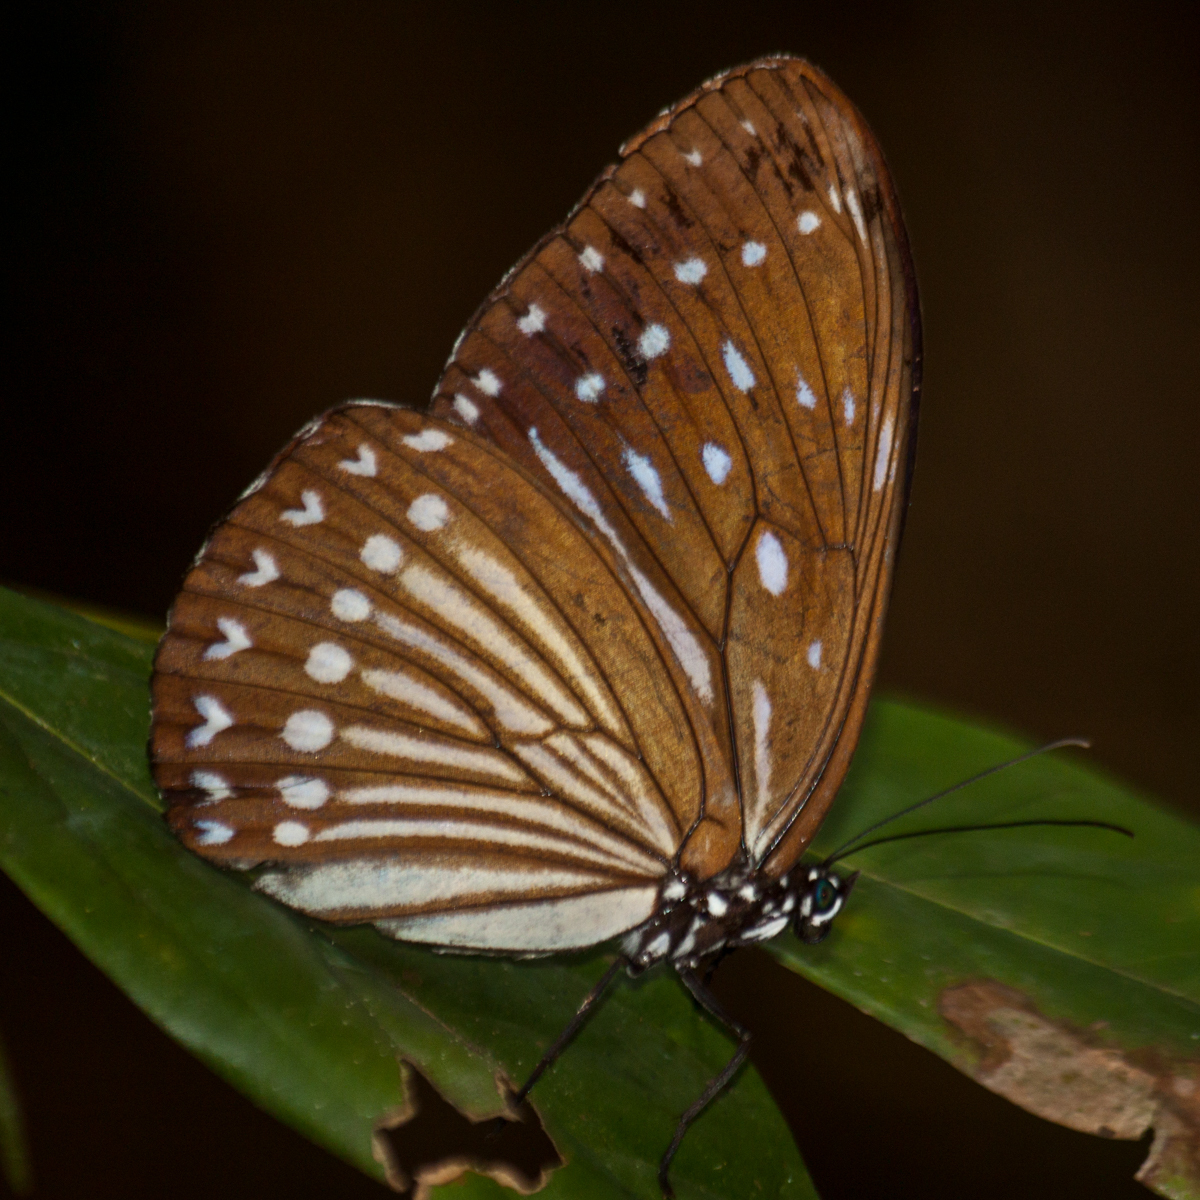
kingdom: Animalia
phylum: Arthropoda
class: Insecta
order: Lepidoptera
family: Nymphalidae
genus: Penthema
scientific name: Penthema darlisa
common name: Three-coloured kaiser
